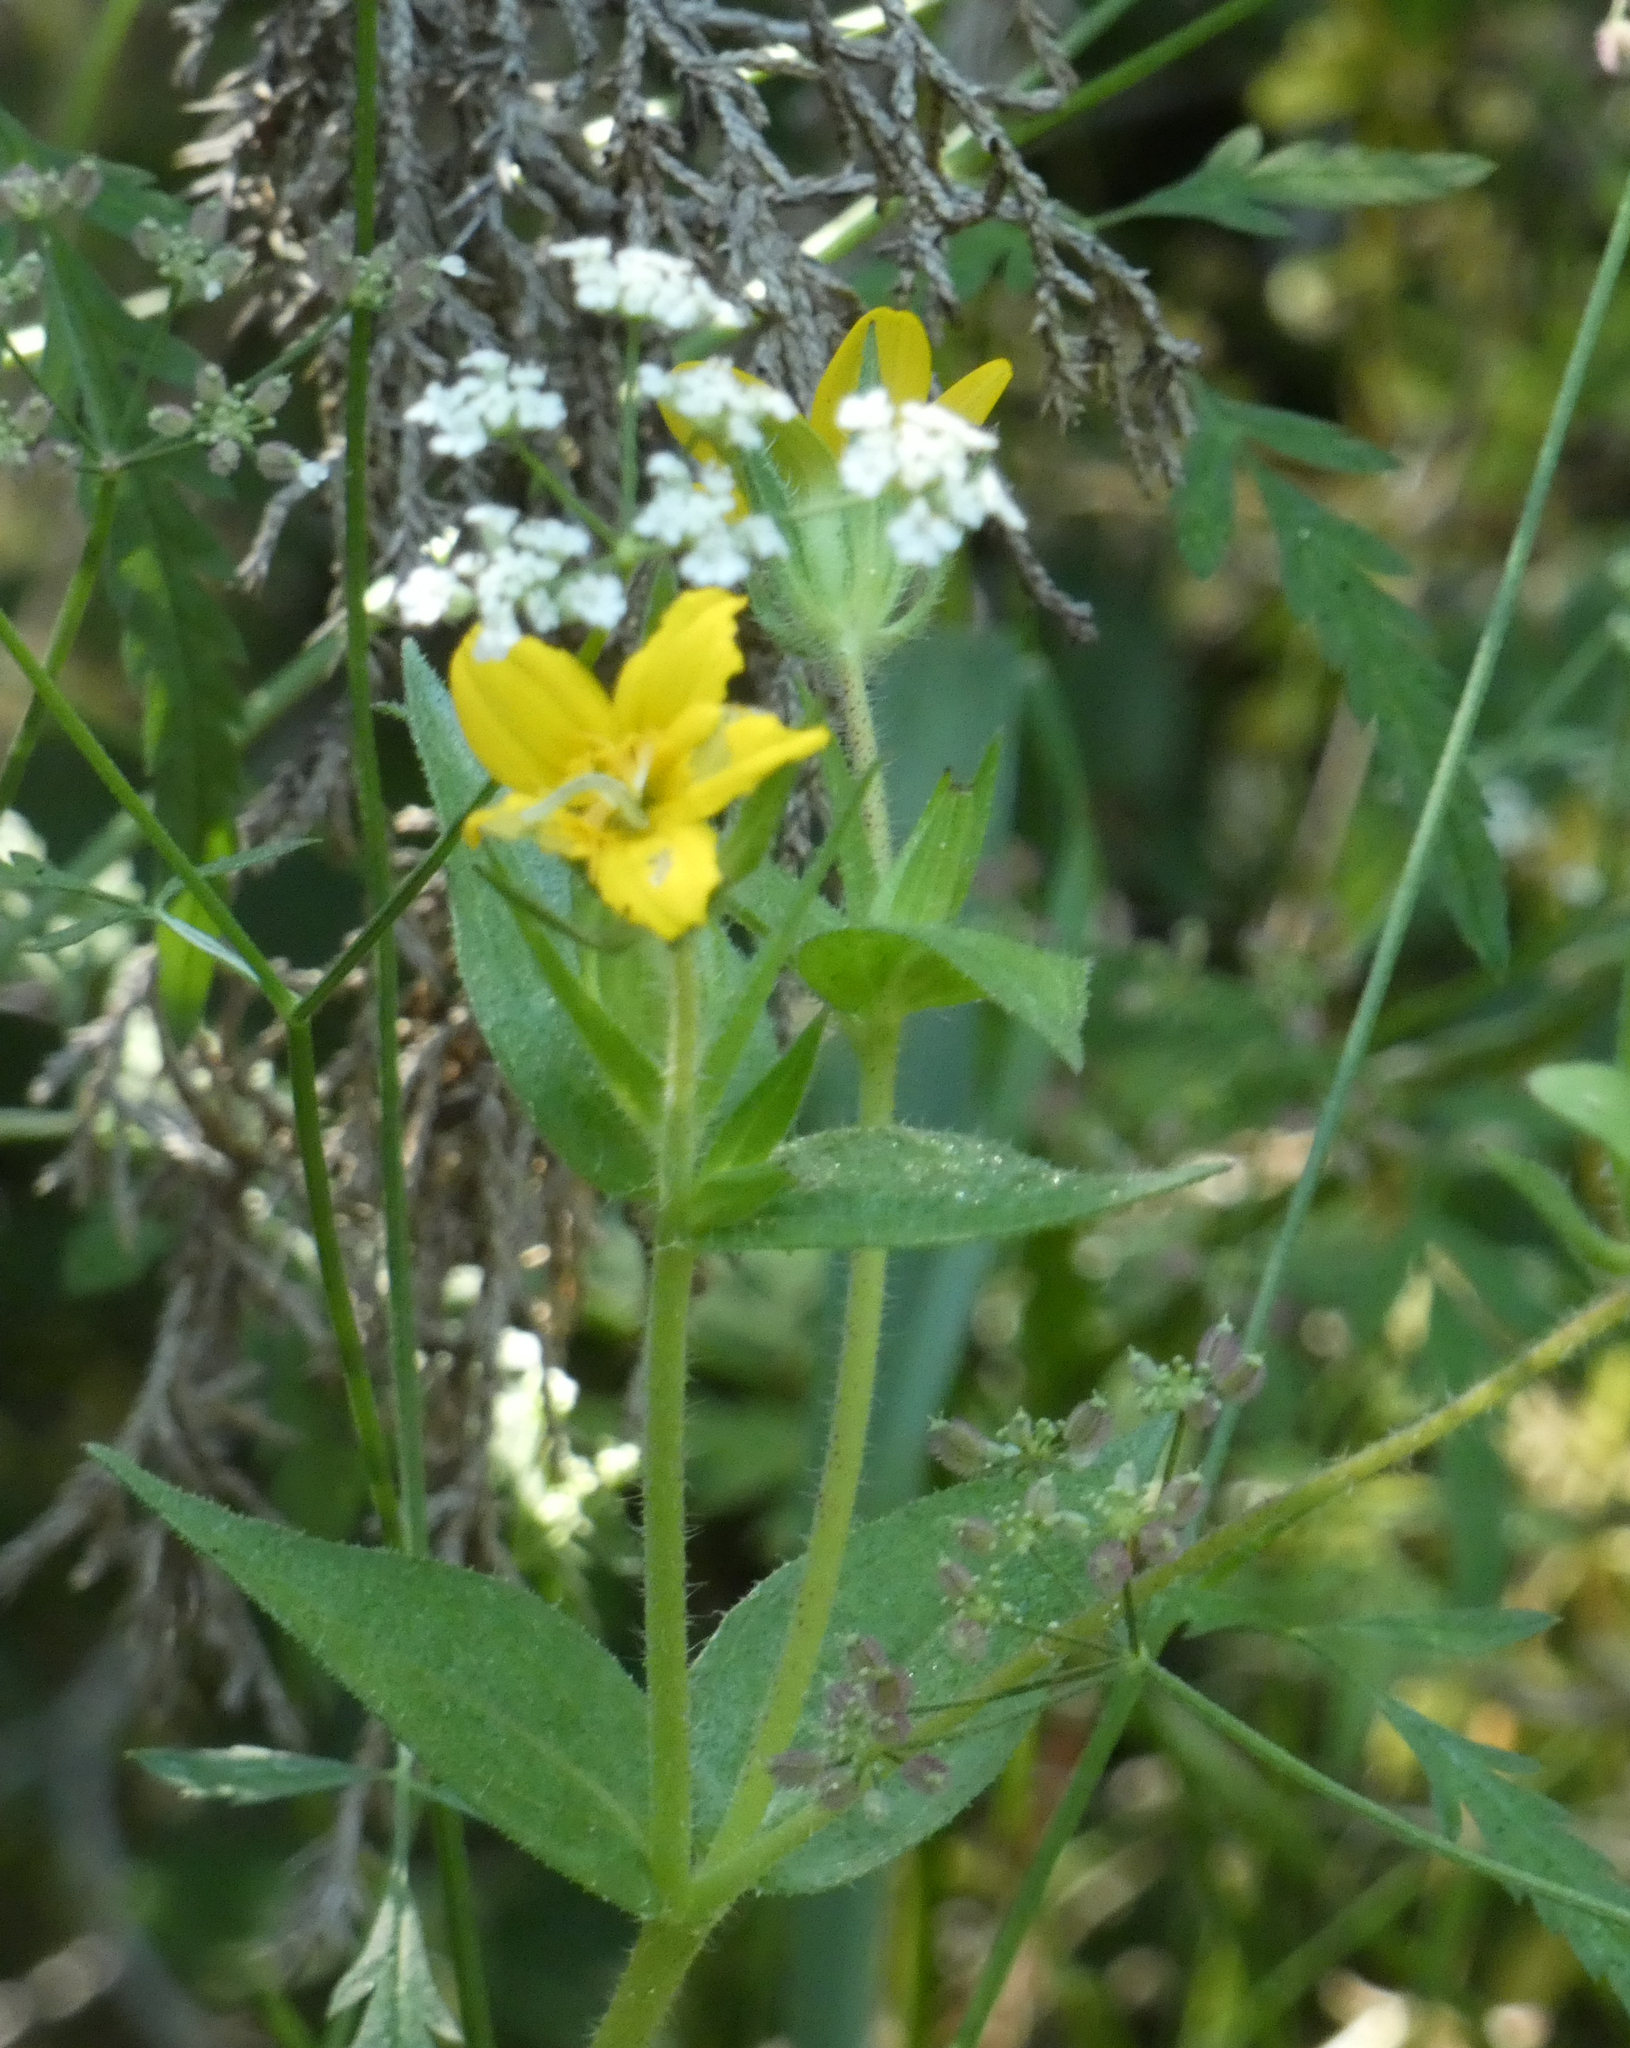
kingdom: Plantae
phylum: Tracheophyta
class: Magnoliopsida
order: Asterales
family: Asteraceae
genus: Lindheimera
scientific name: Lindheimera texana
